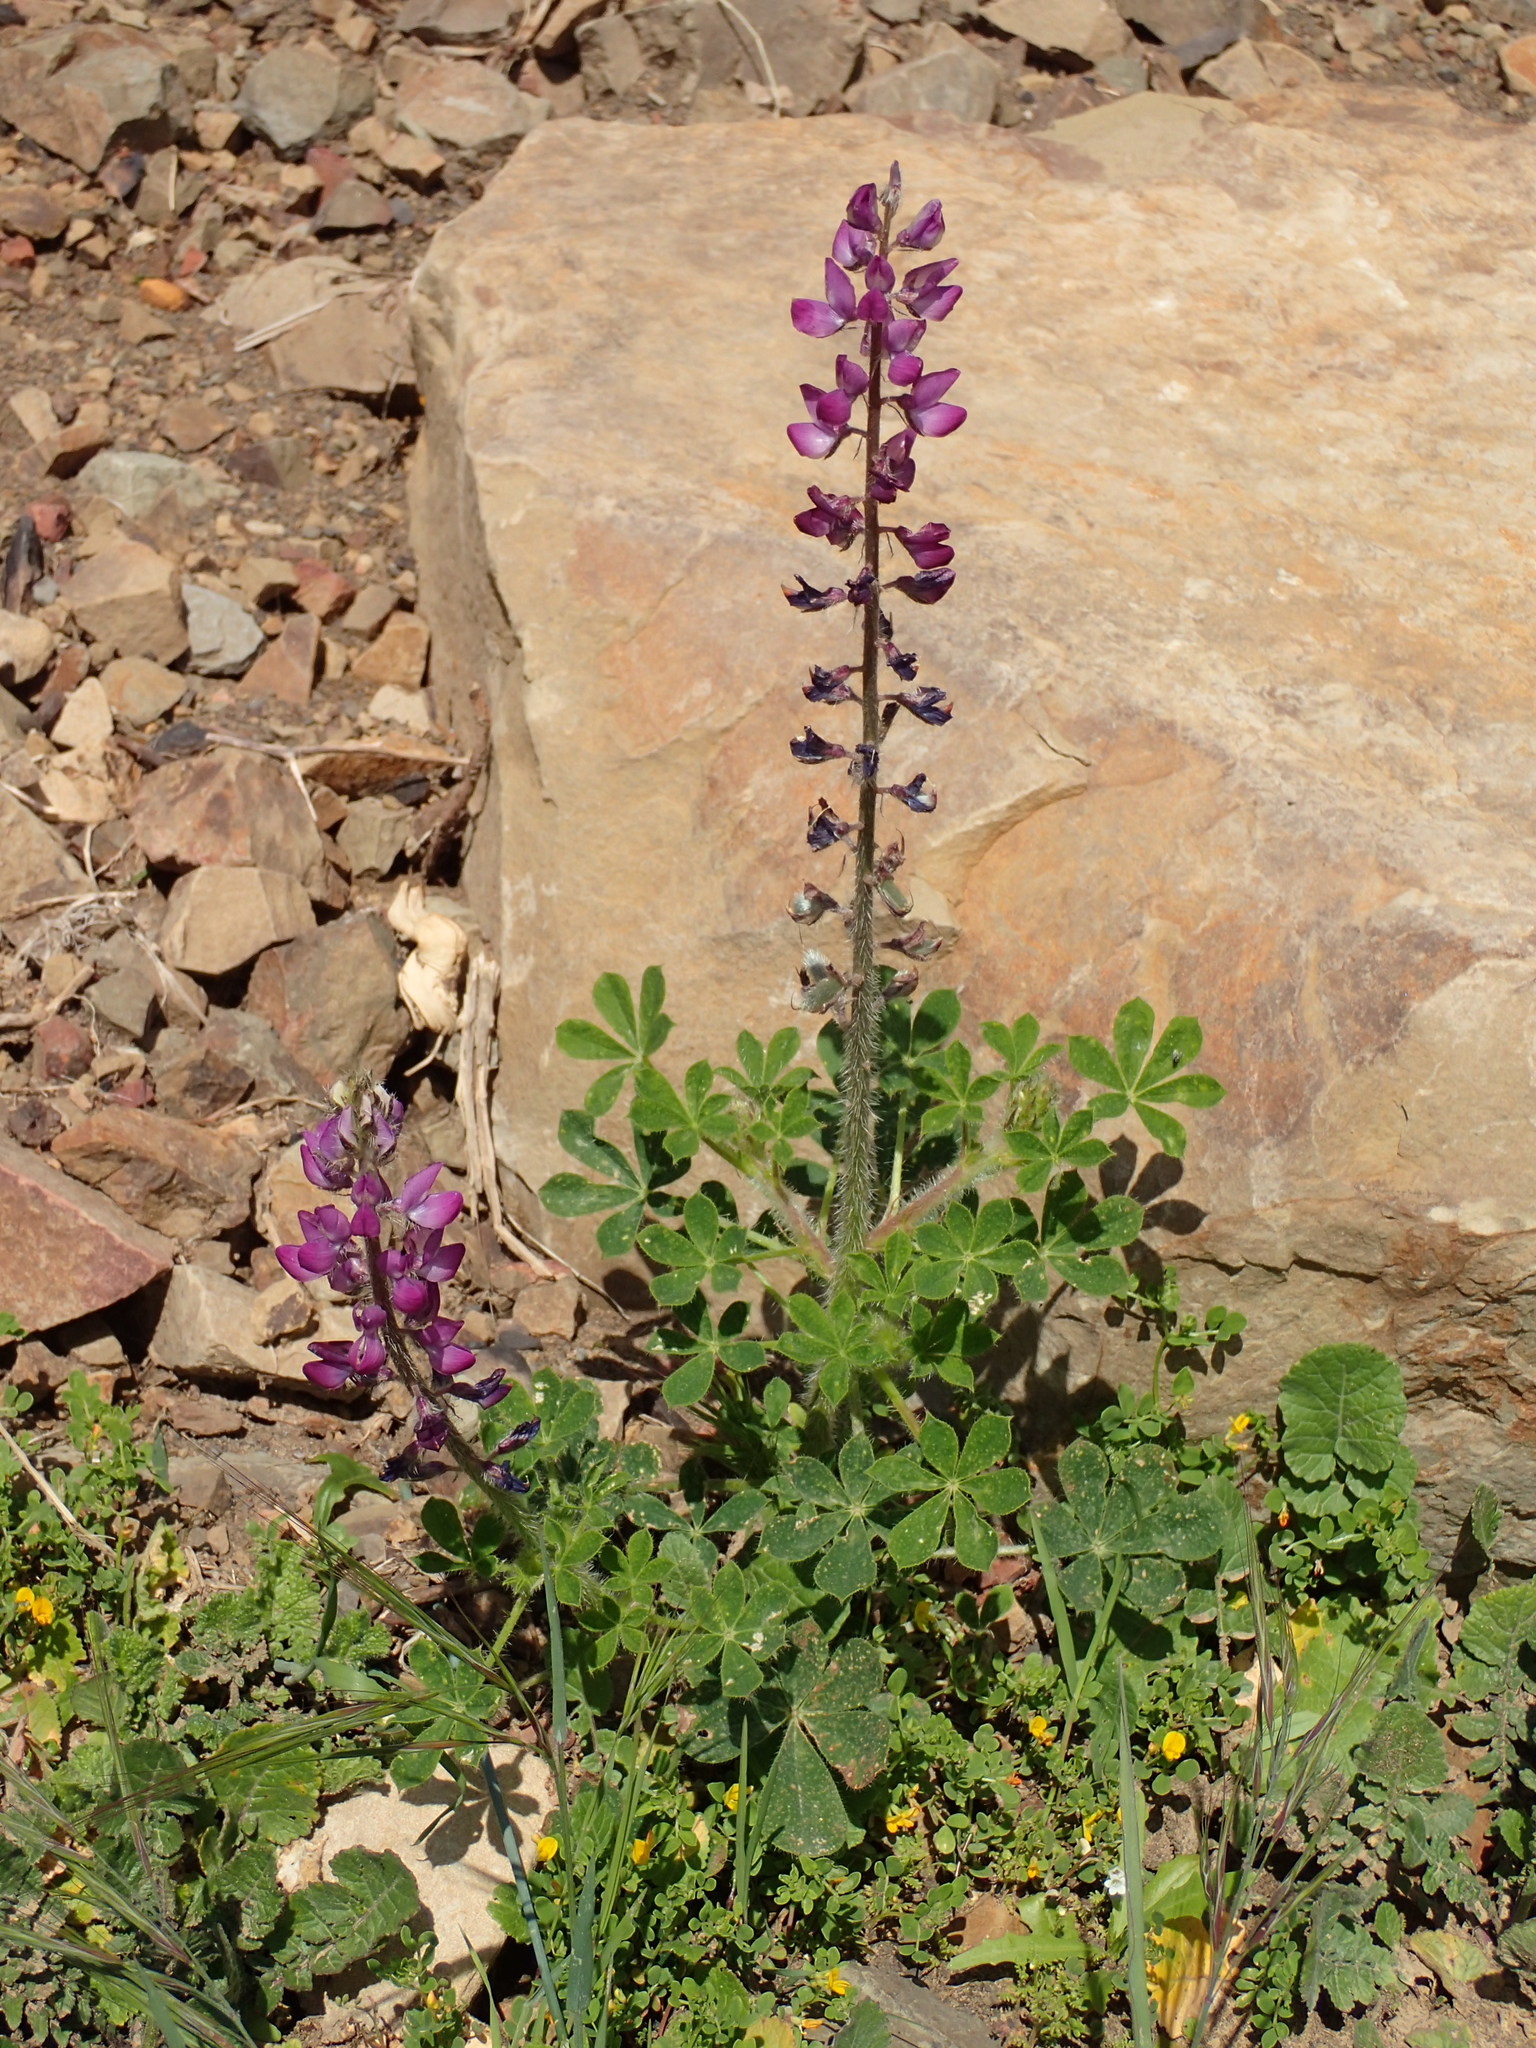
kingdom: Plantae
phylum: Tracheophyta
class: Magnoliopsida
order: Fabales
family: Fabaceae
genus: Lupinus
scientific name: Lupinus hirsutissimus
